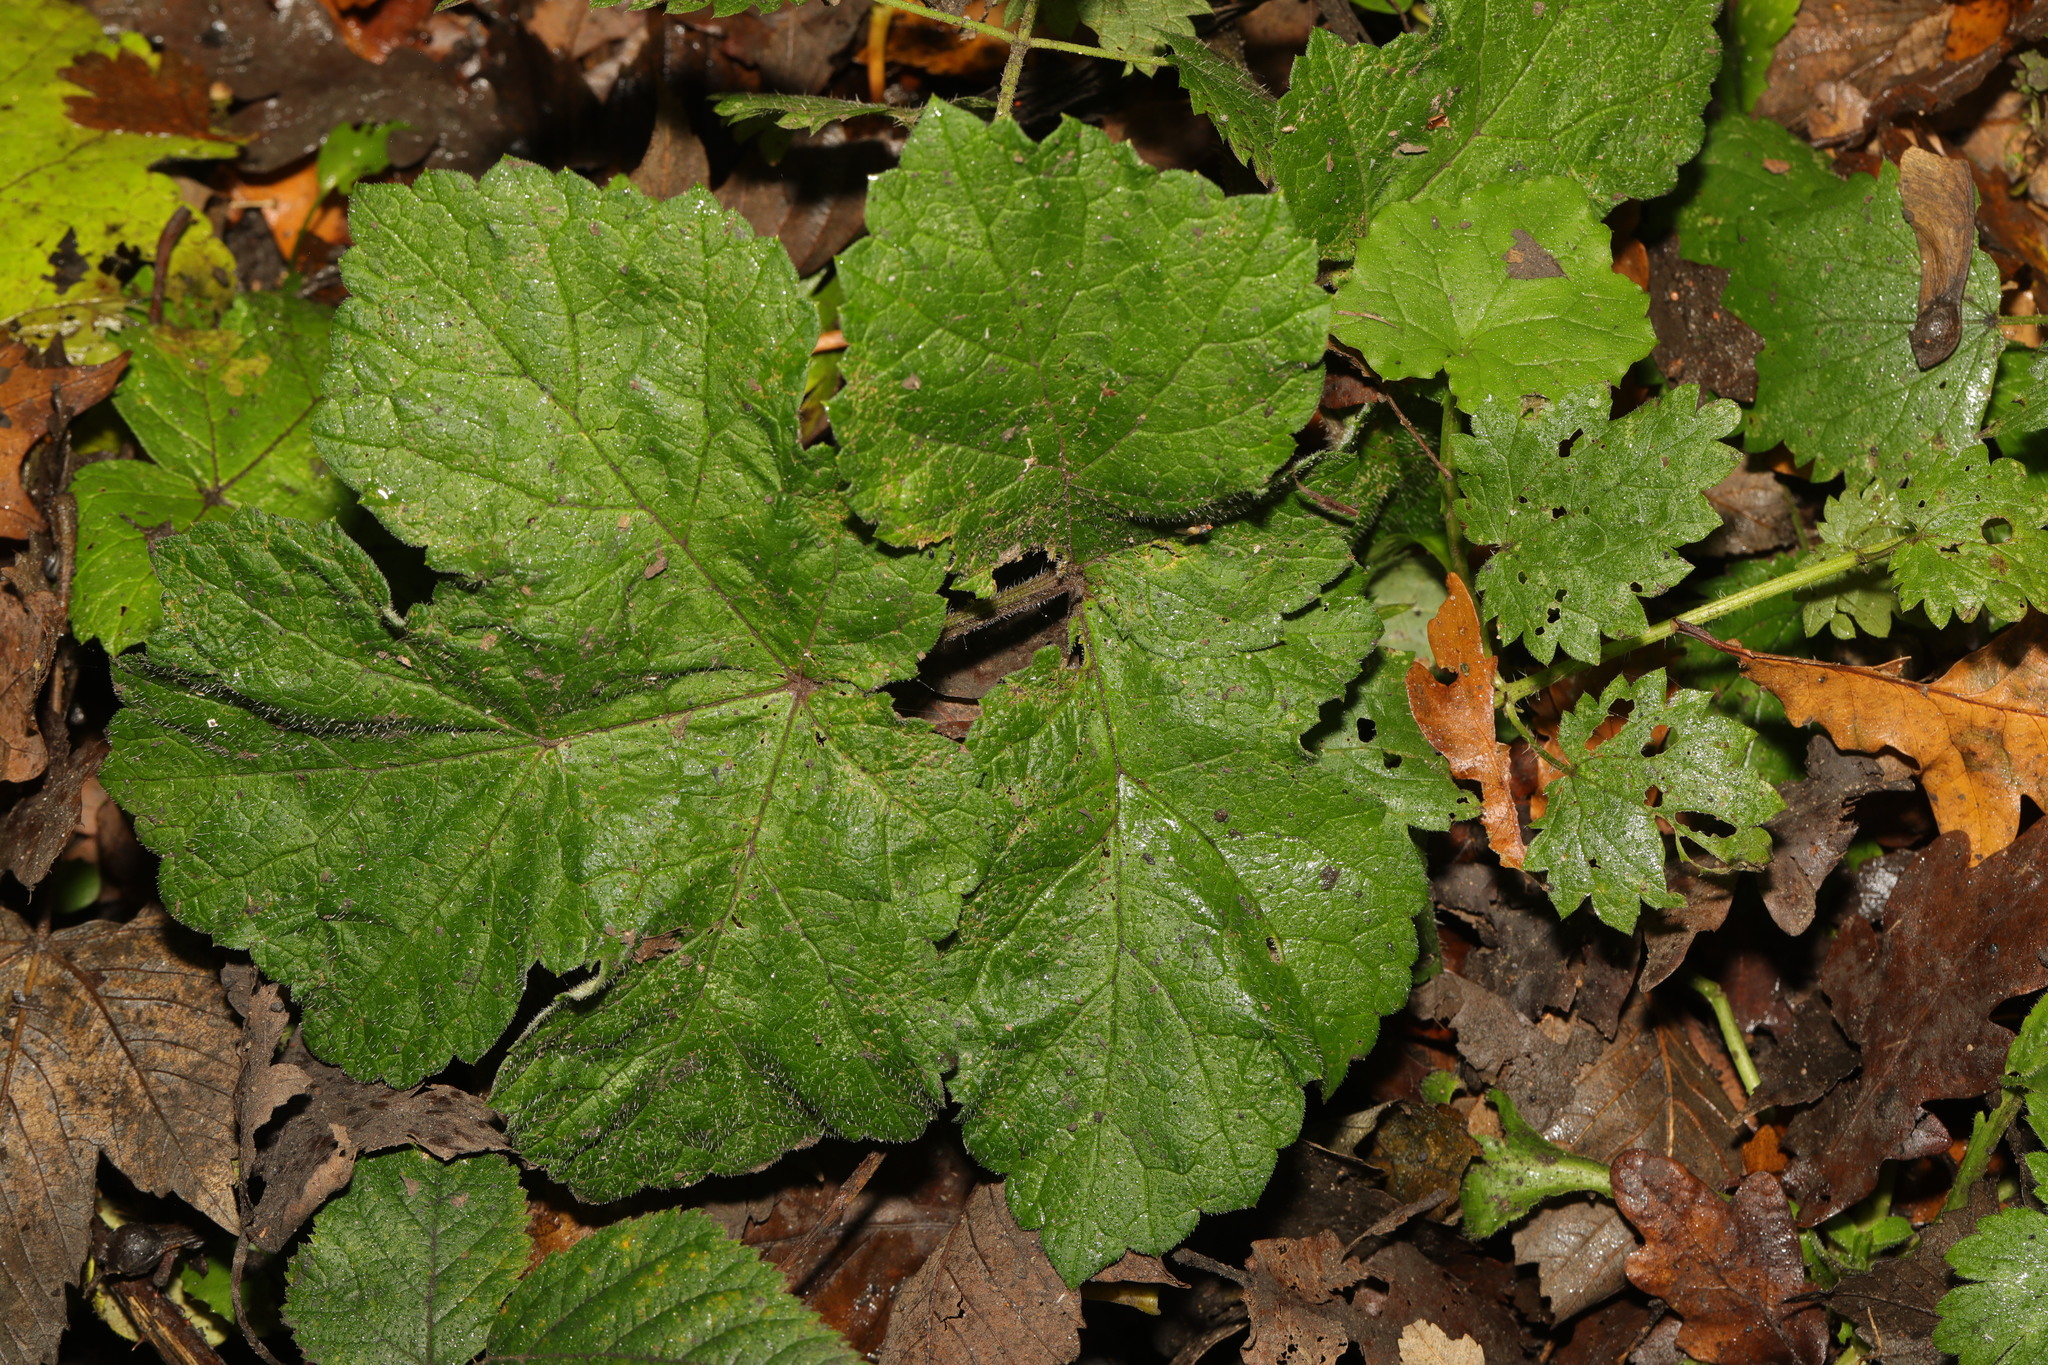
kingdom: Plantae
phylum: Tracheophyta
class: Magnoliopsida
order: Apiales
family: Apiaceae
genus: Heracleum
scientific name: Heracleum sphondylium
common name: Hogweed
